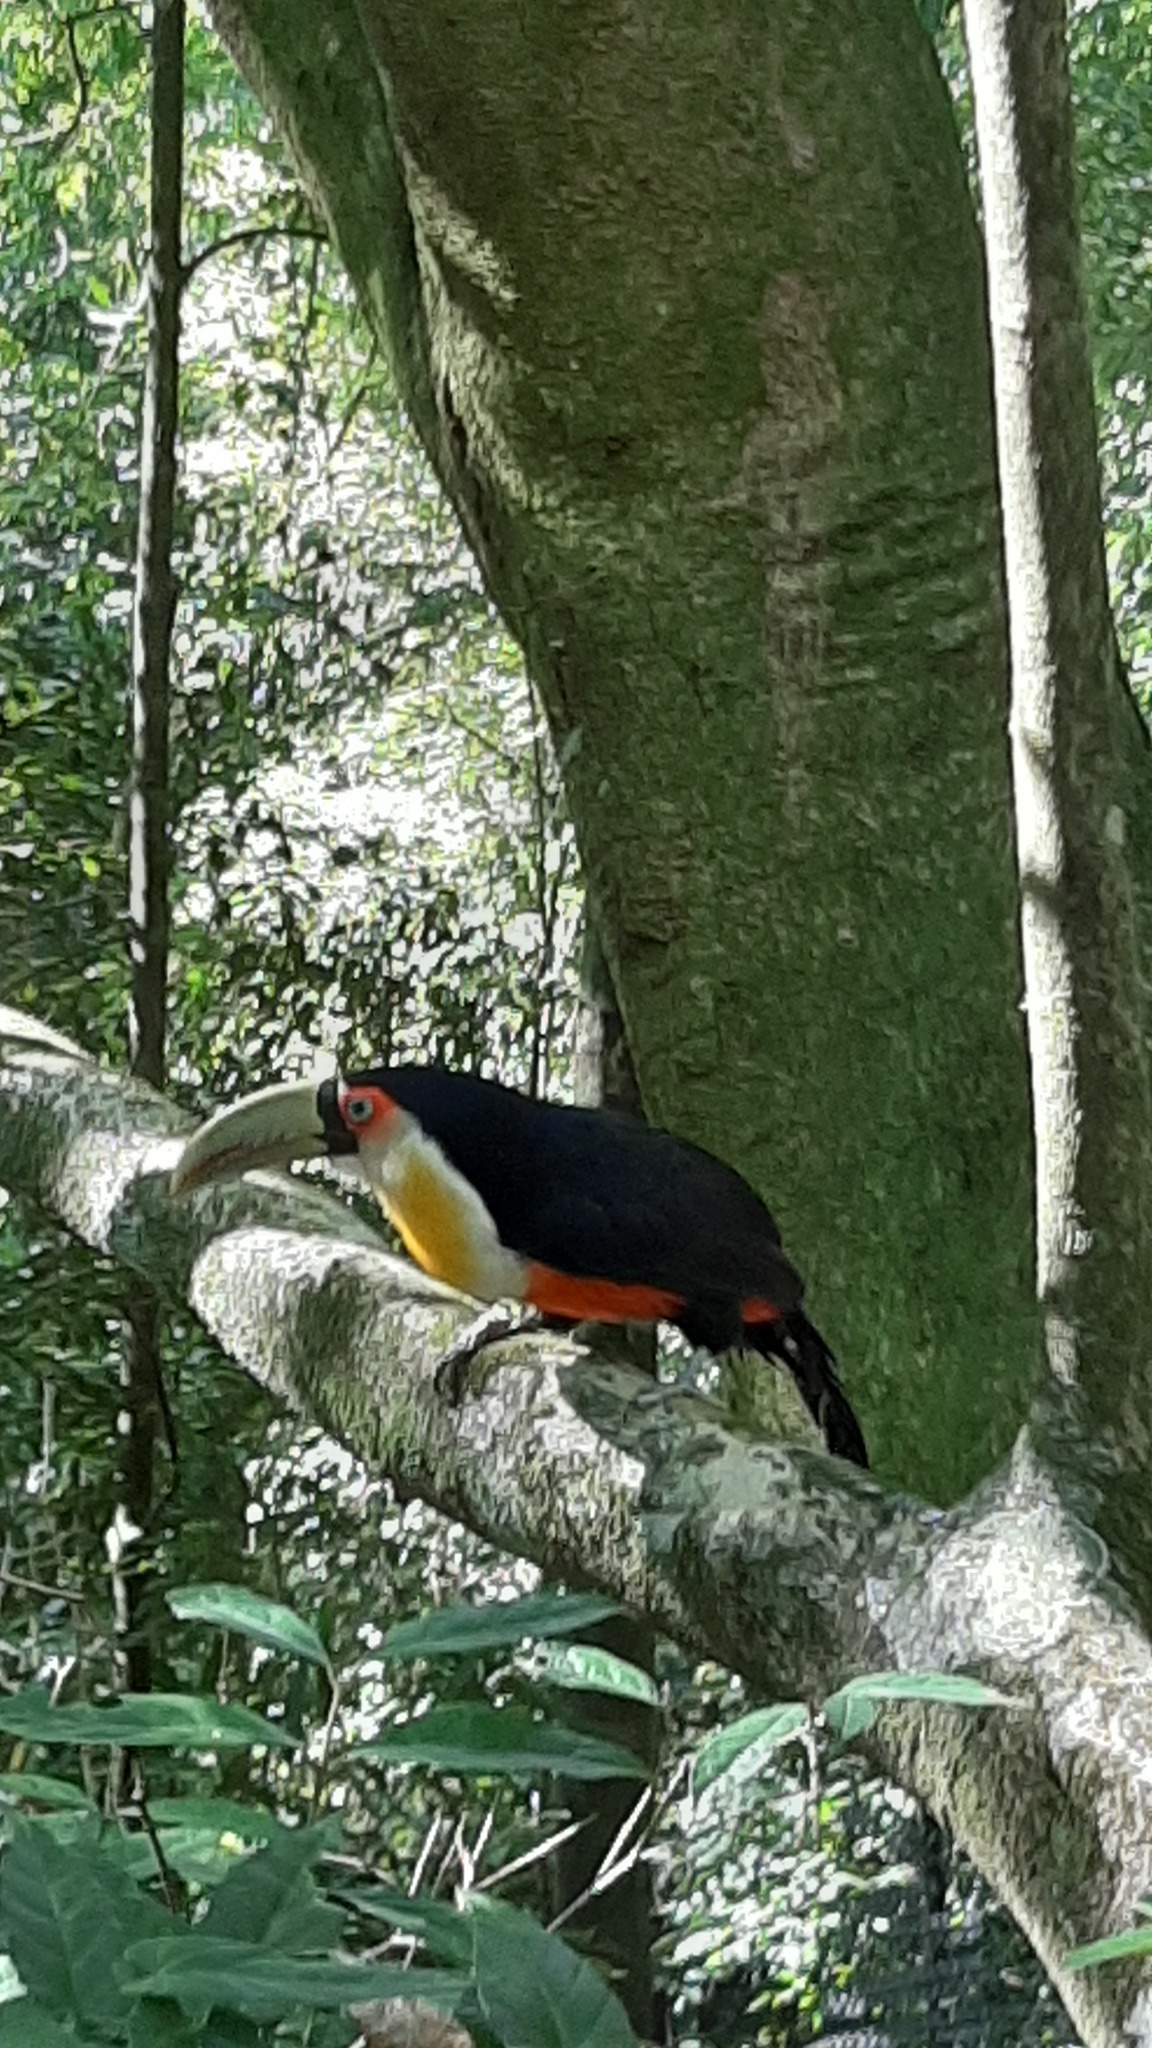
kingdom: Animalia
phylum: Chordata
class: Aves
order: Piciformes
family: Ramphastidae
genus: Ramphastos
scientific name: Ramphastos dicolorus
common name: Green-billed toucan
